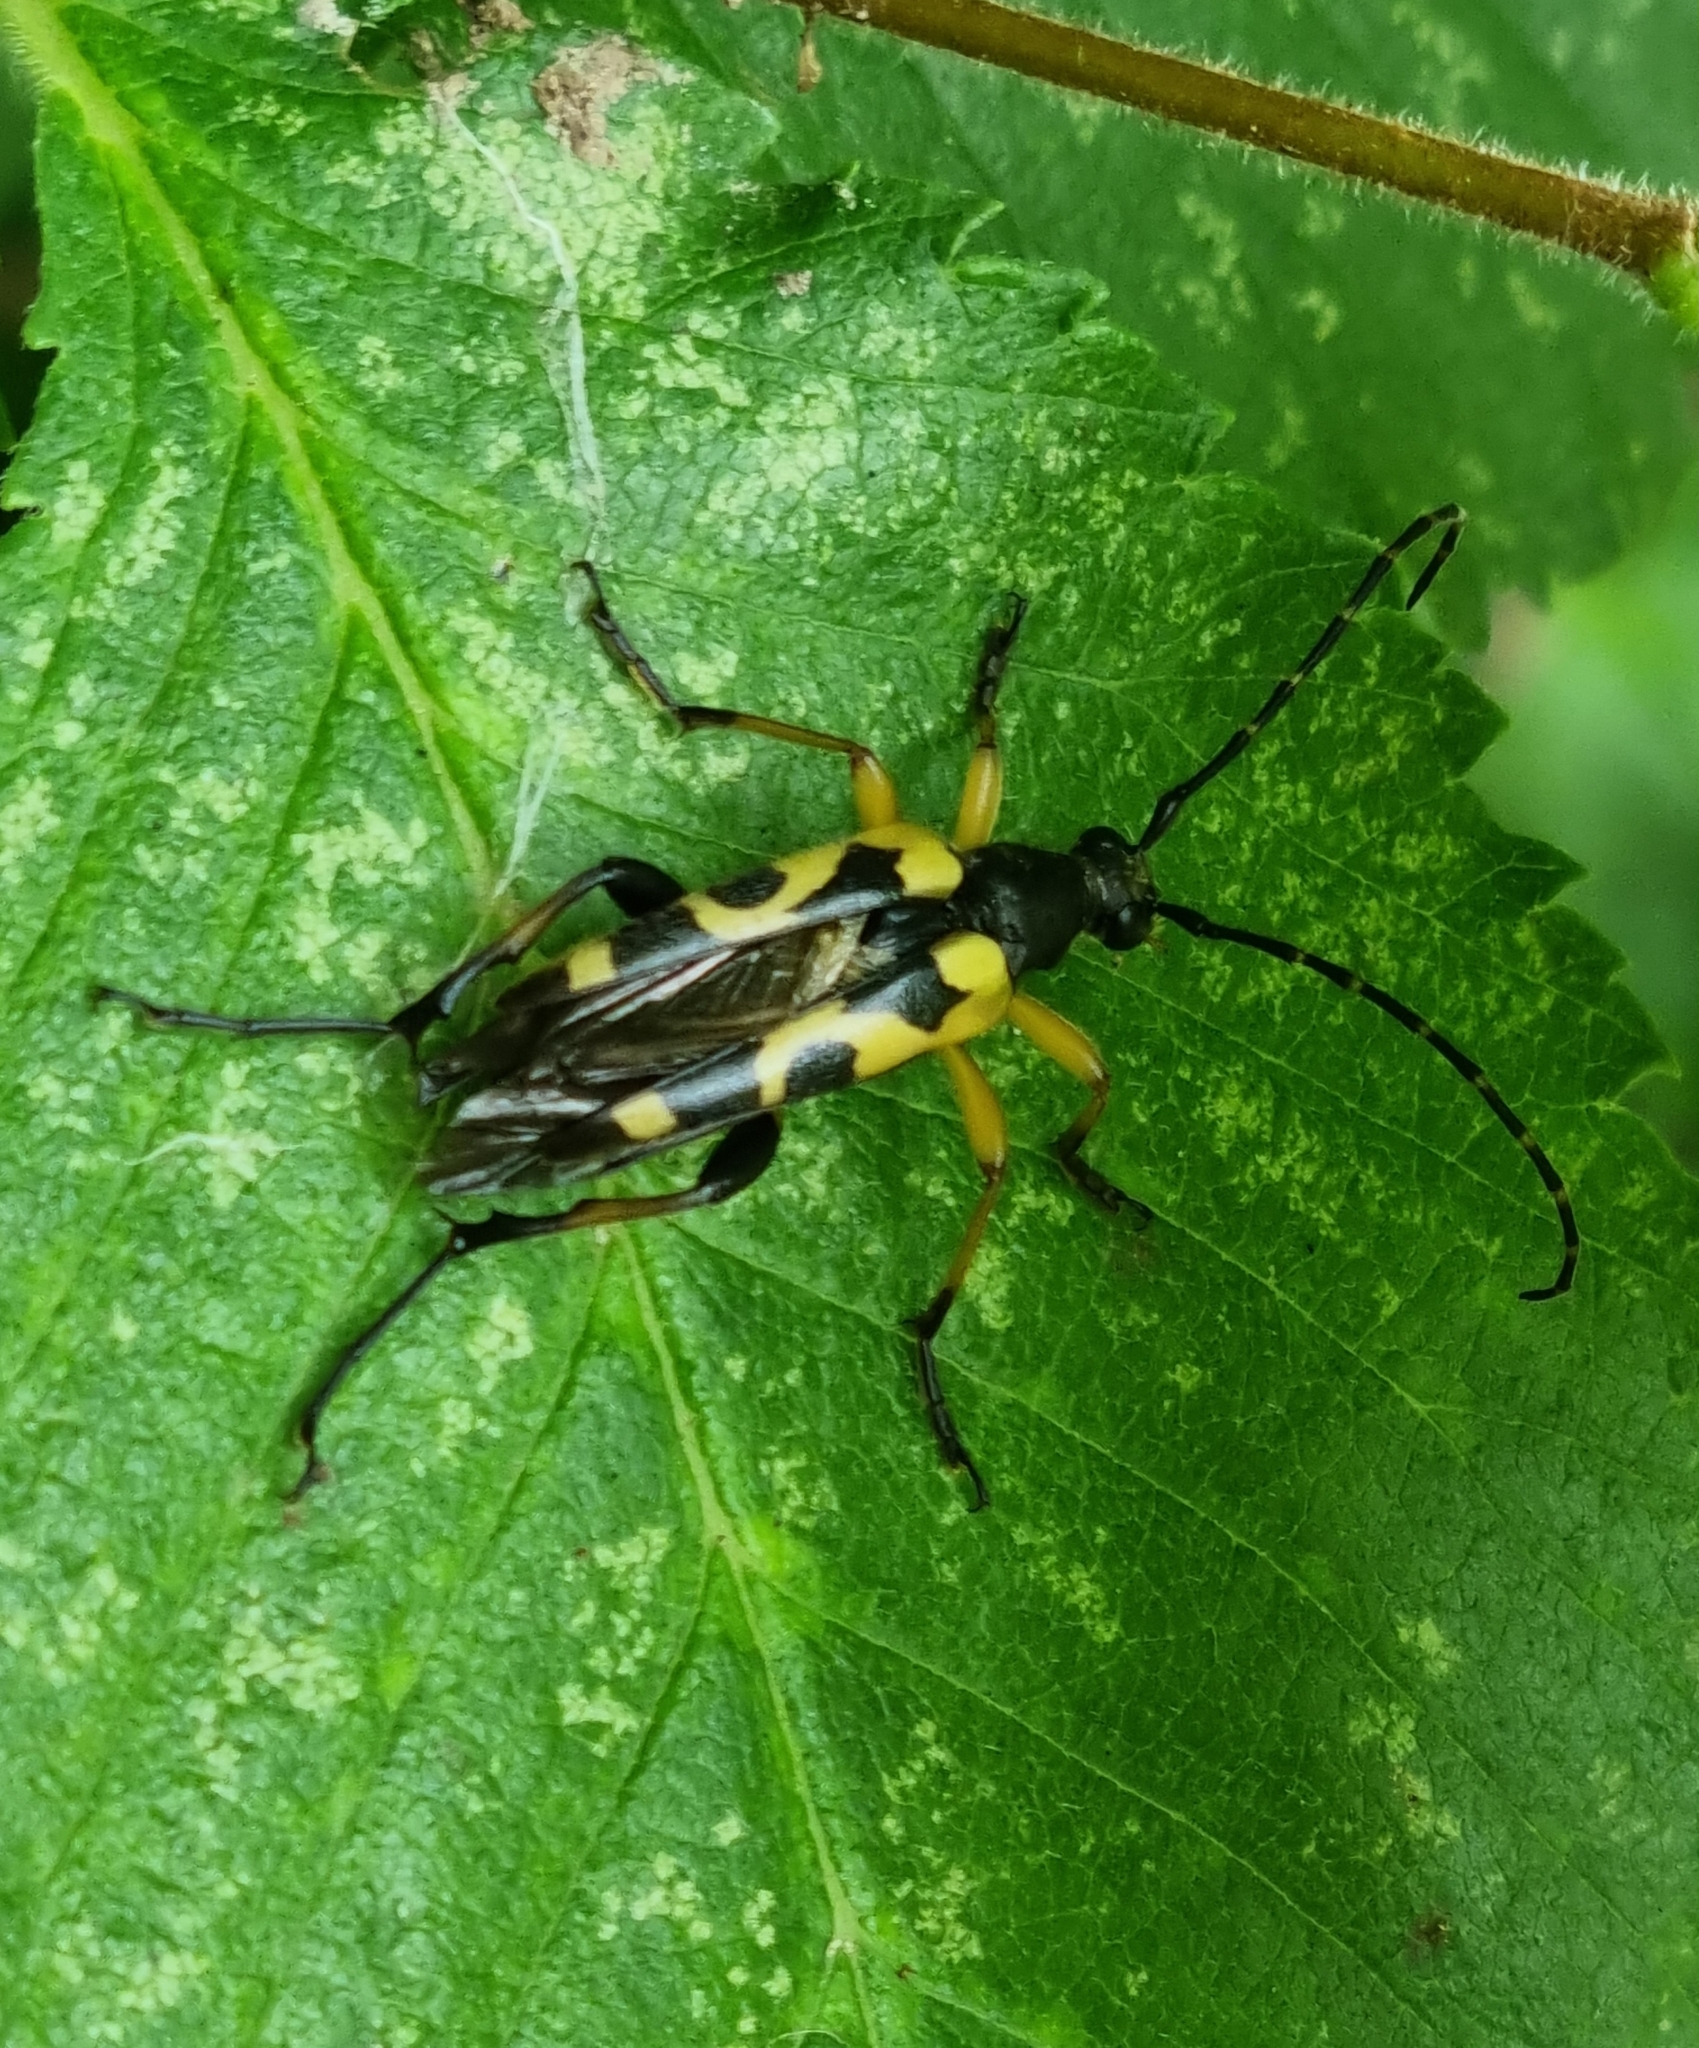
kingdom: Animalia
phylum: Arthropoda
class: Insecta
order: Coleoptera
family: Cerambycidae
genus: Rutpela
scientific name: Rutpela maculata
